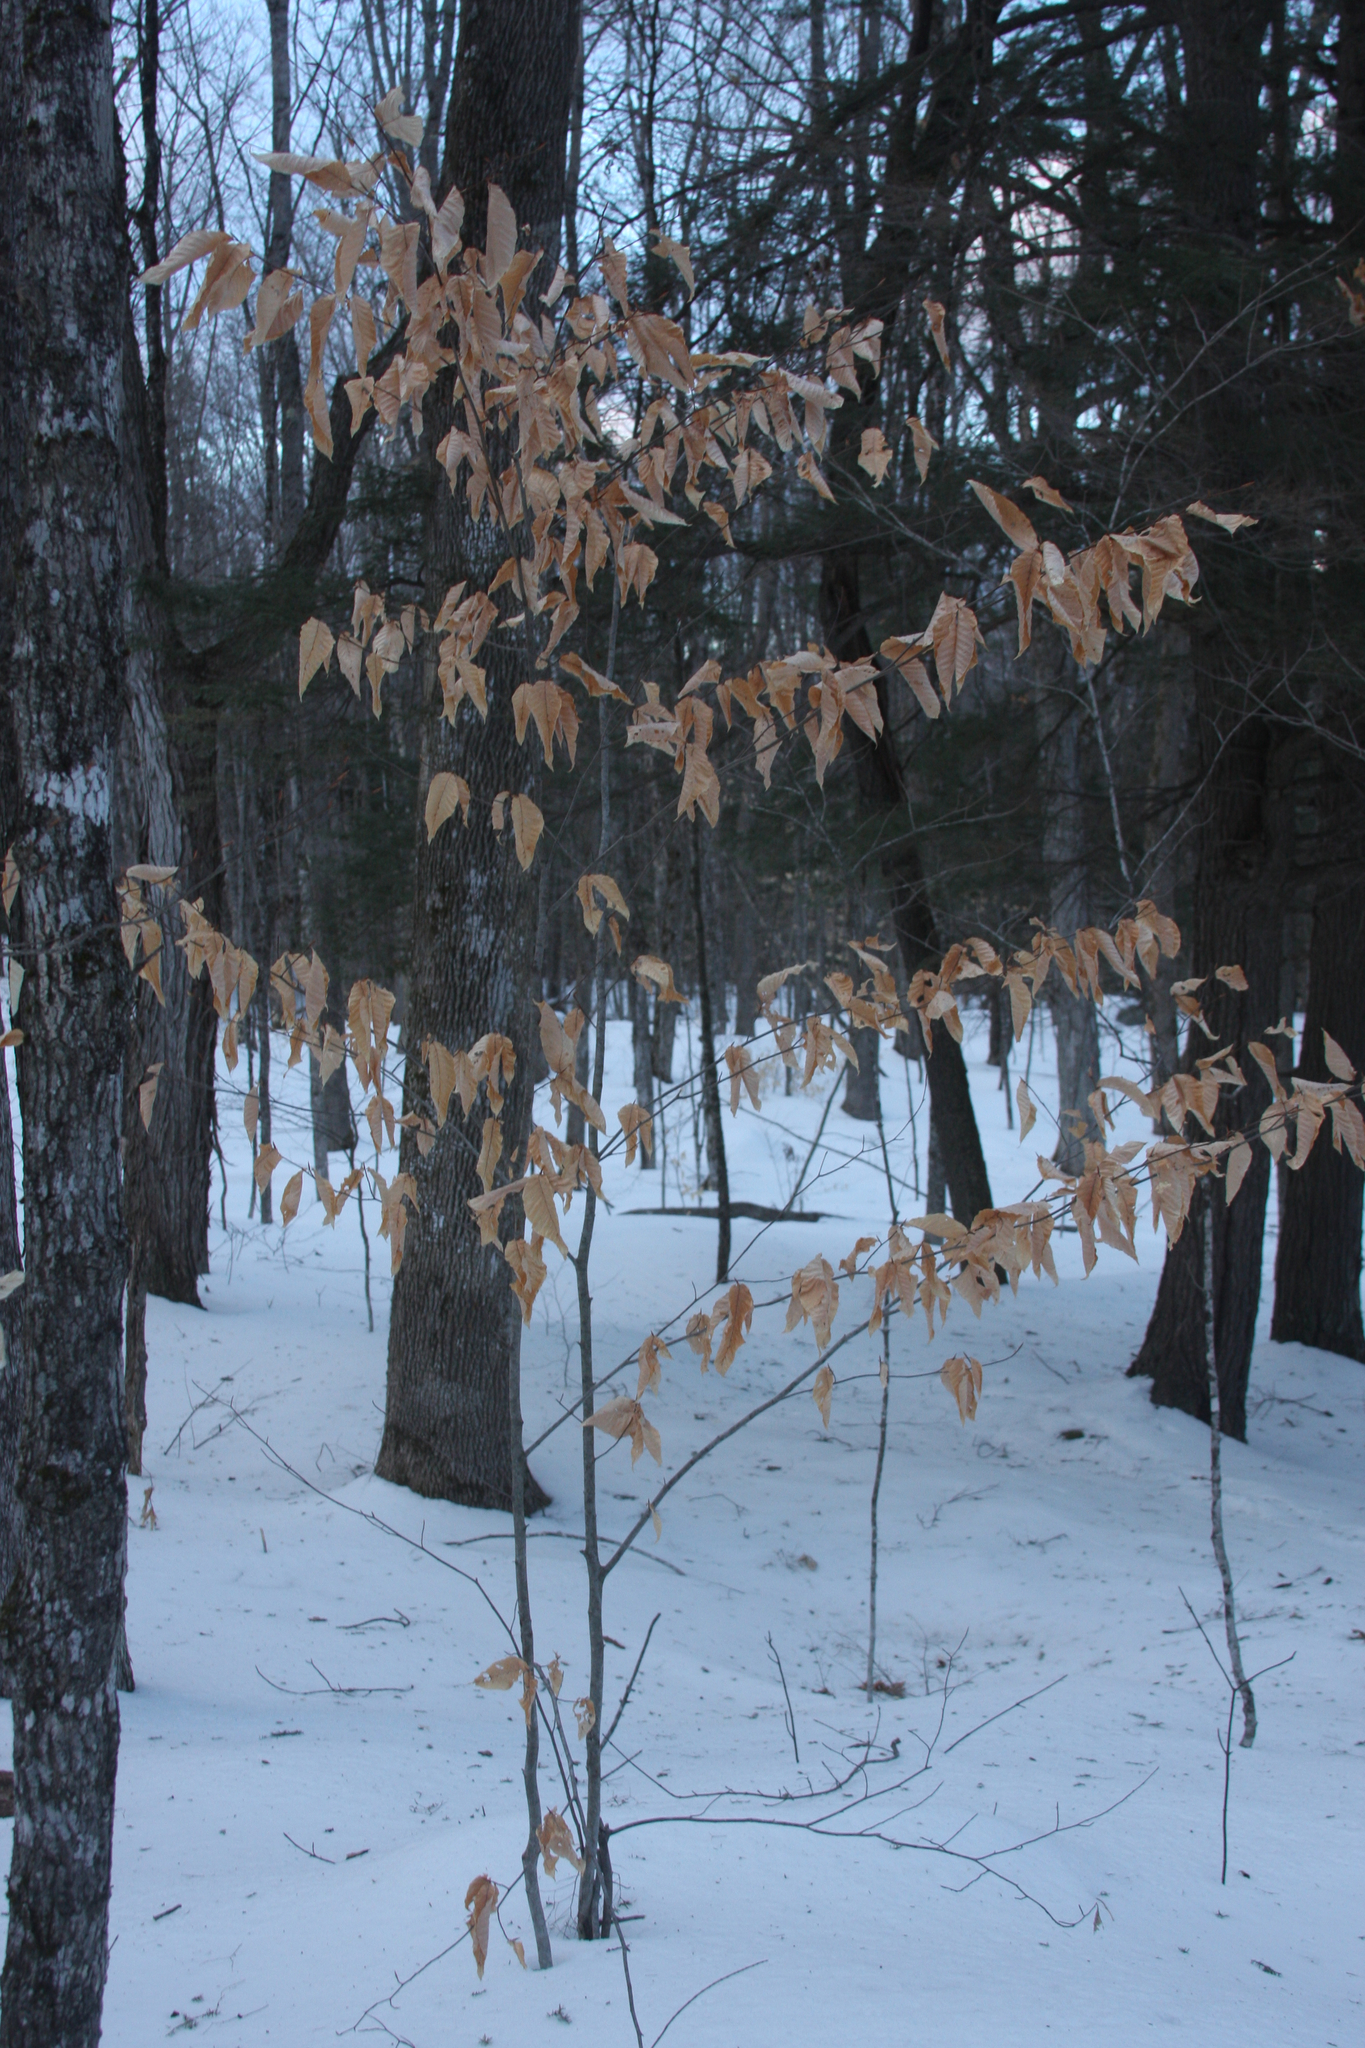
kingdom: Plantae
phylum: Tracheophyta
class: Magnoliopsida
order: Fagales
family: Fagaceae
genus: Fagus
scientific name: Fagus grandifolia
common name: American beech
